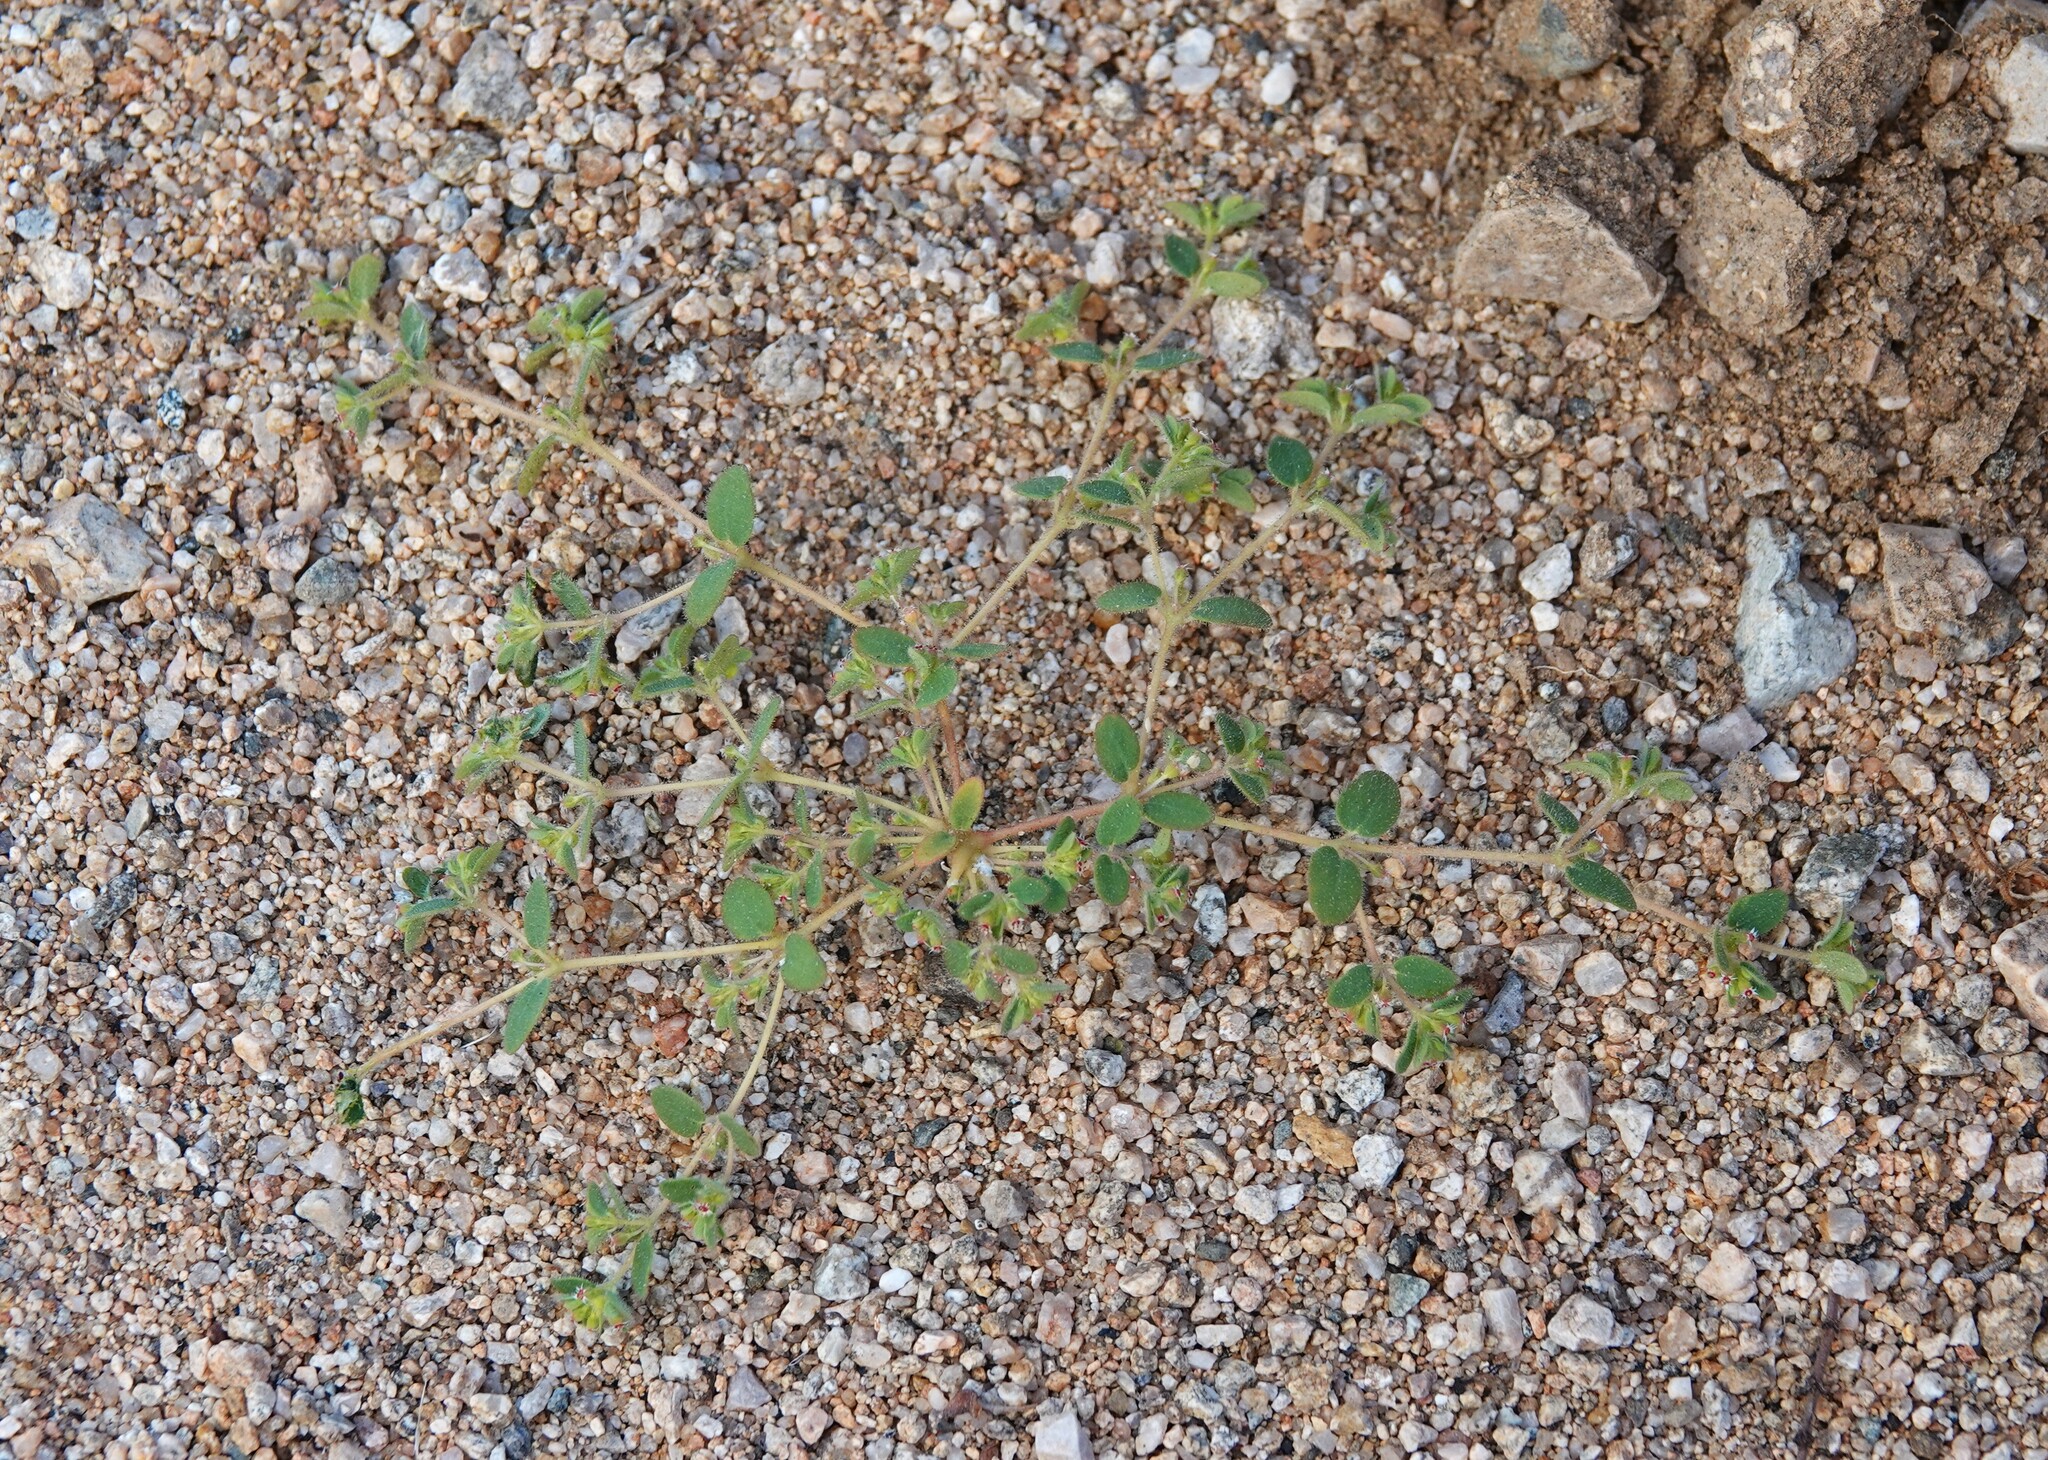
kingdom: Plantae
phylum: Tracheophyta
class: Magnoliopsida
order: Malpighiales
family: Euphorbiaceae
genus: Euphorbia
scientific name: Euphorbia setiloba
